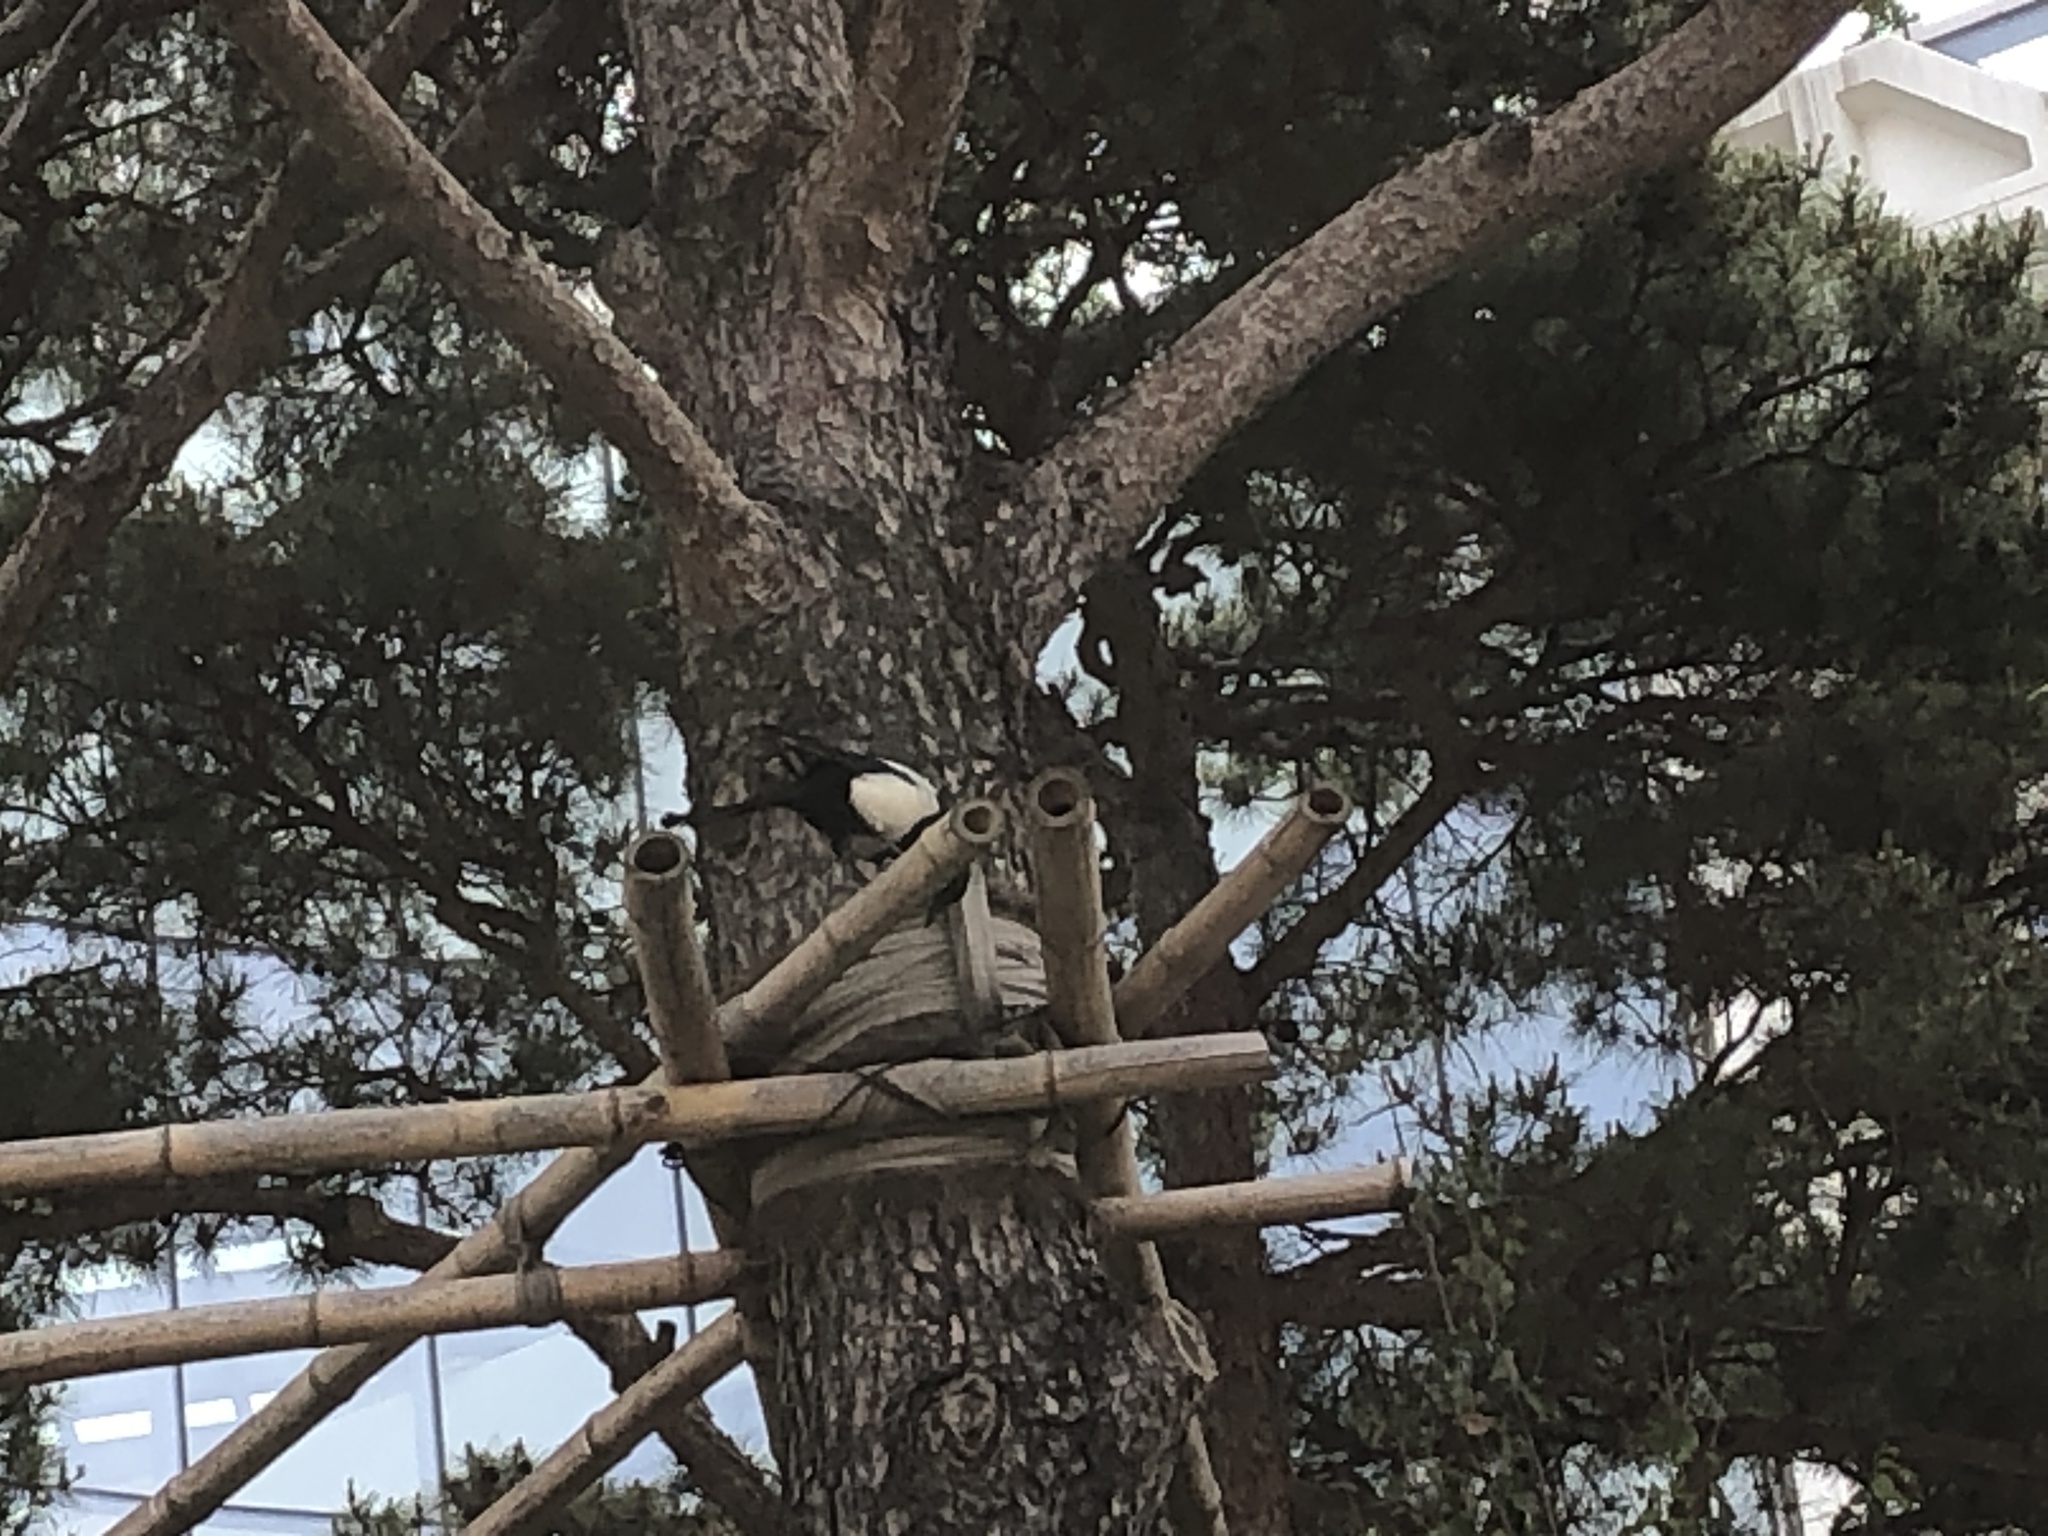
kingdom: Animalia
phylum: Chordata
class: Aves
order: Passeriformes
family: Corvidae
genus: Pica
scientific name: Pica serica
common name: Oriental magpie
